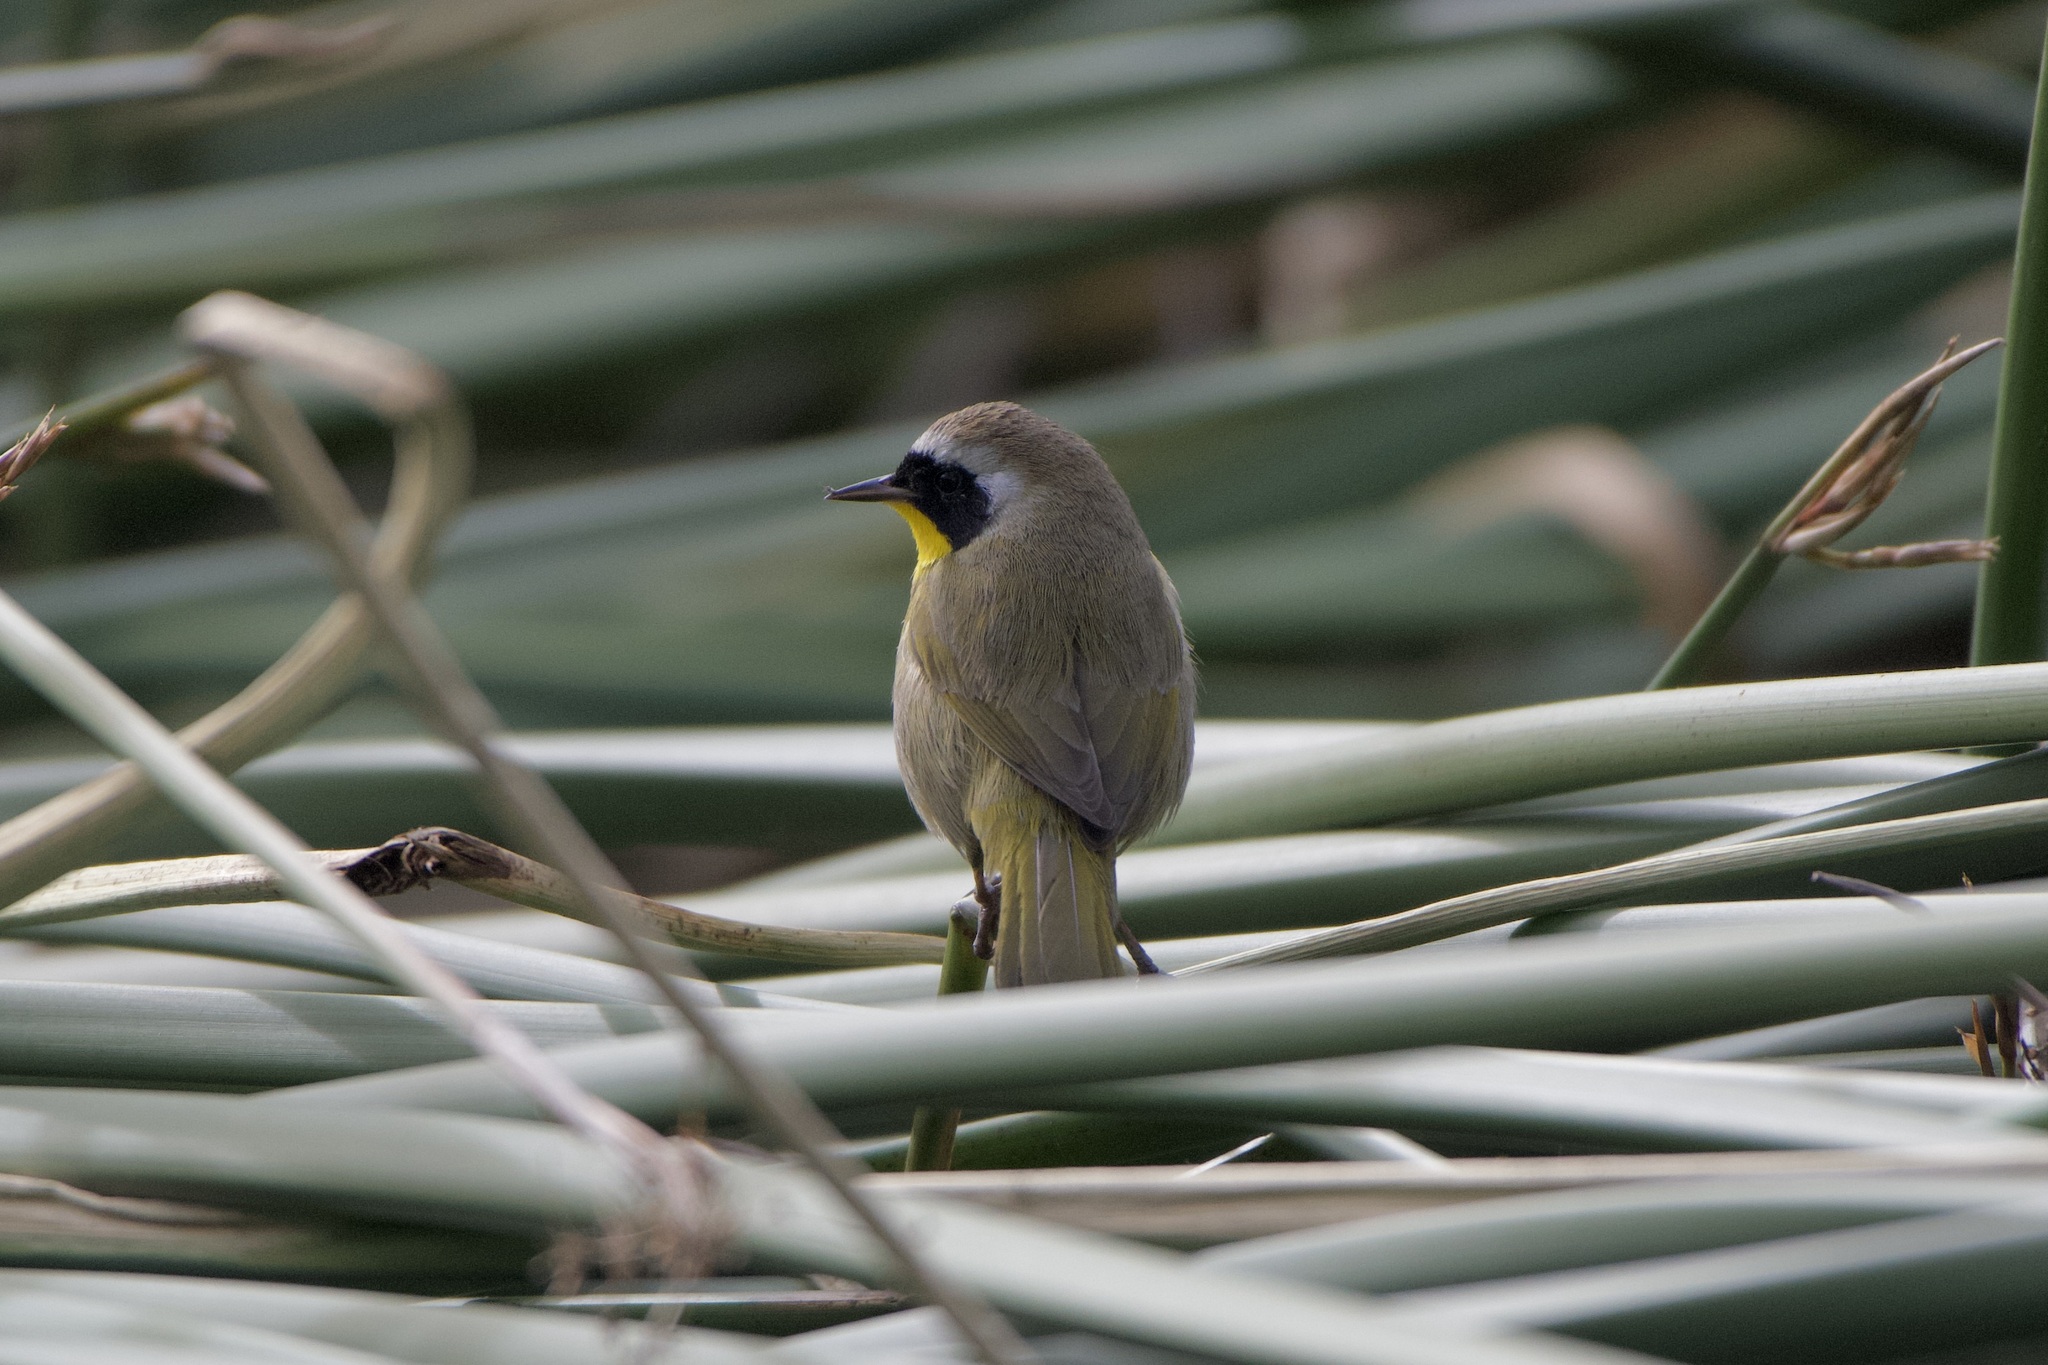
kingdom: Animalia
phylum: Chordata
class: Aves
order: Passeriformes
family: Parulidae
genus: Geothlypis
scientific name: Geothlypis trichas
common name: Common yellowthroat
